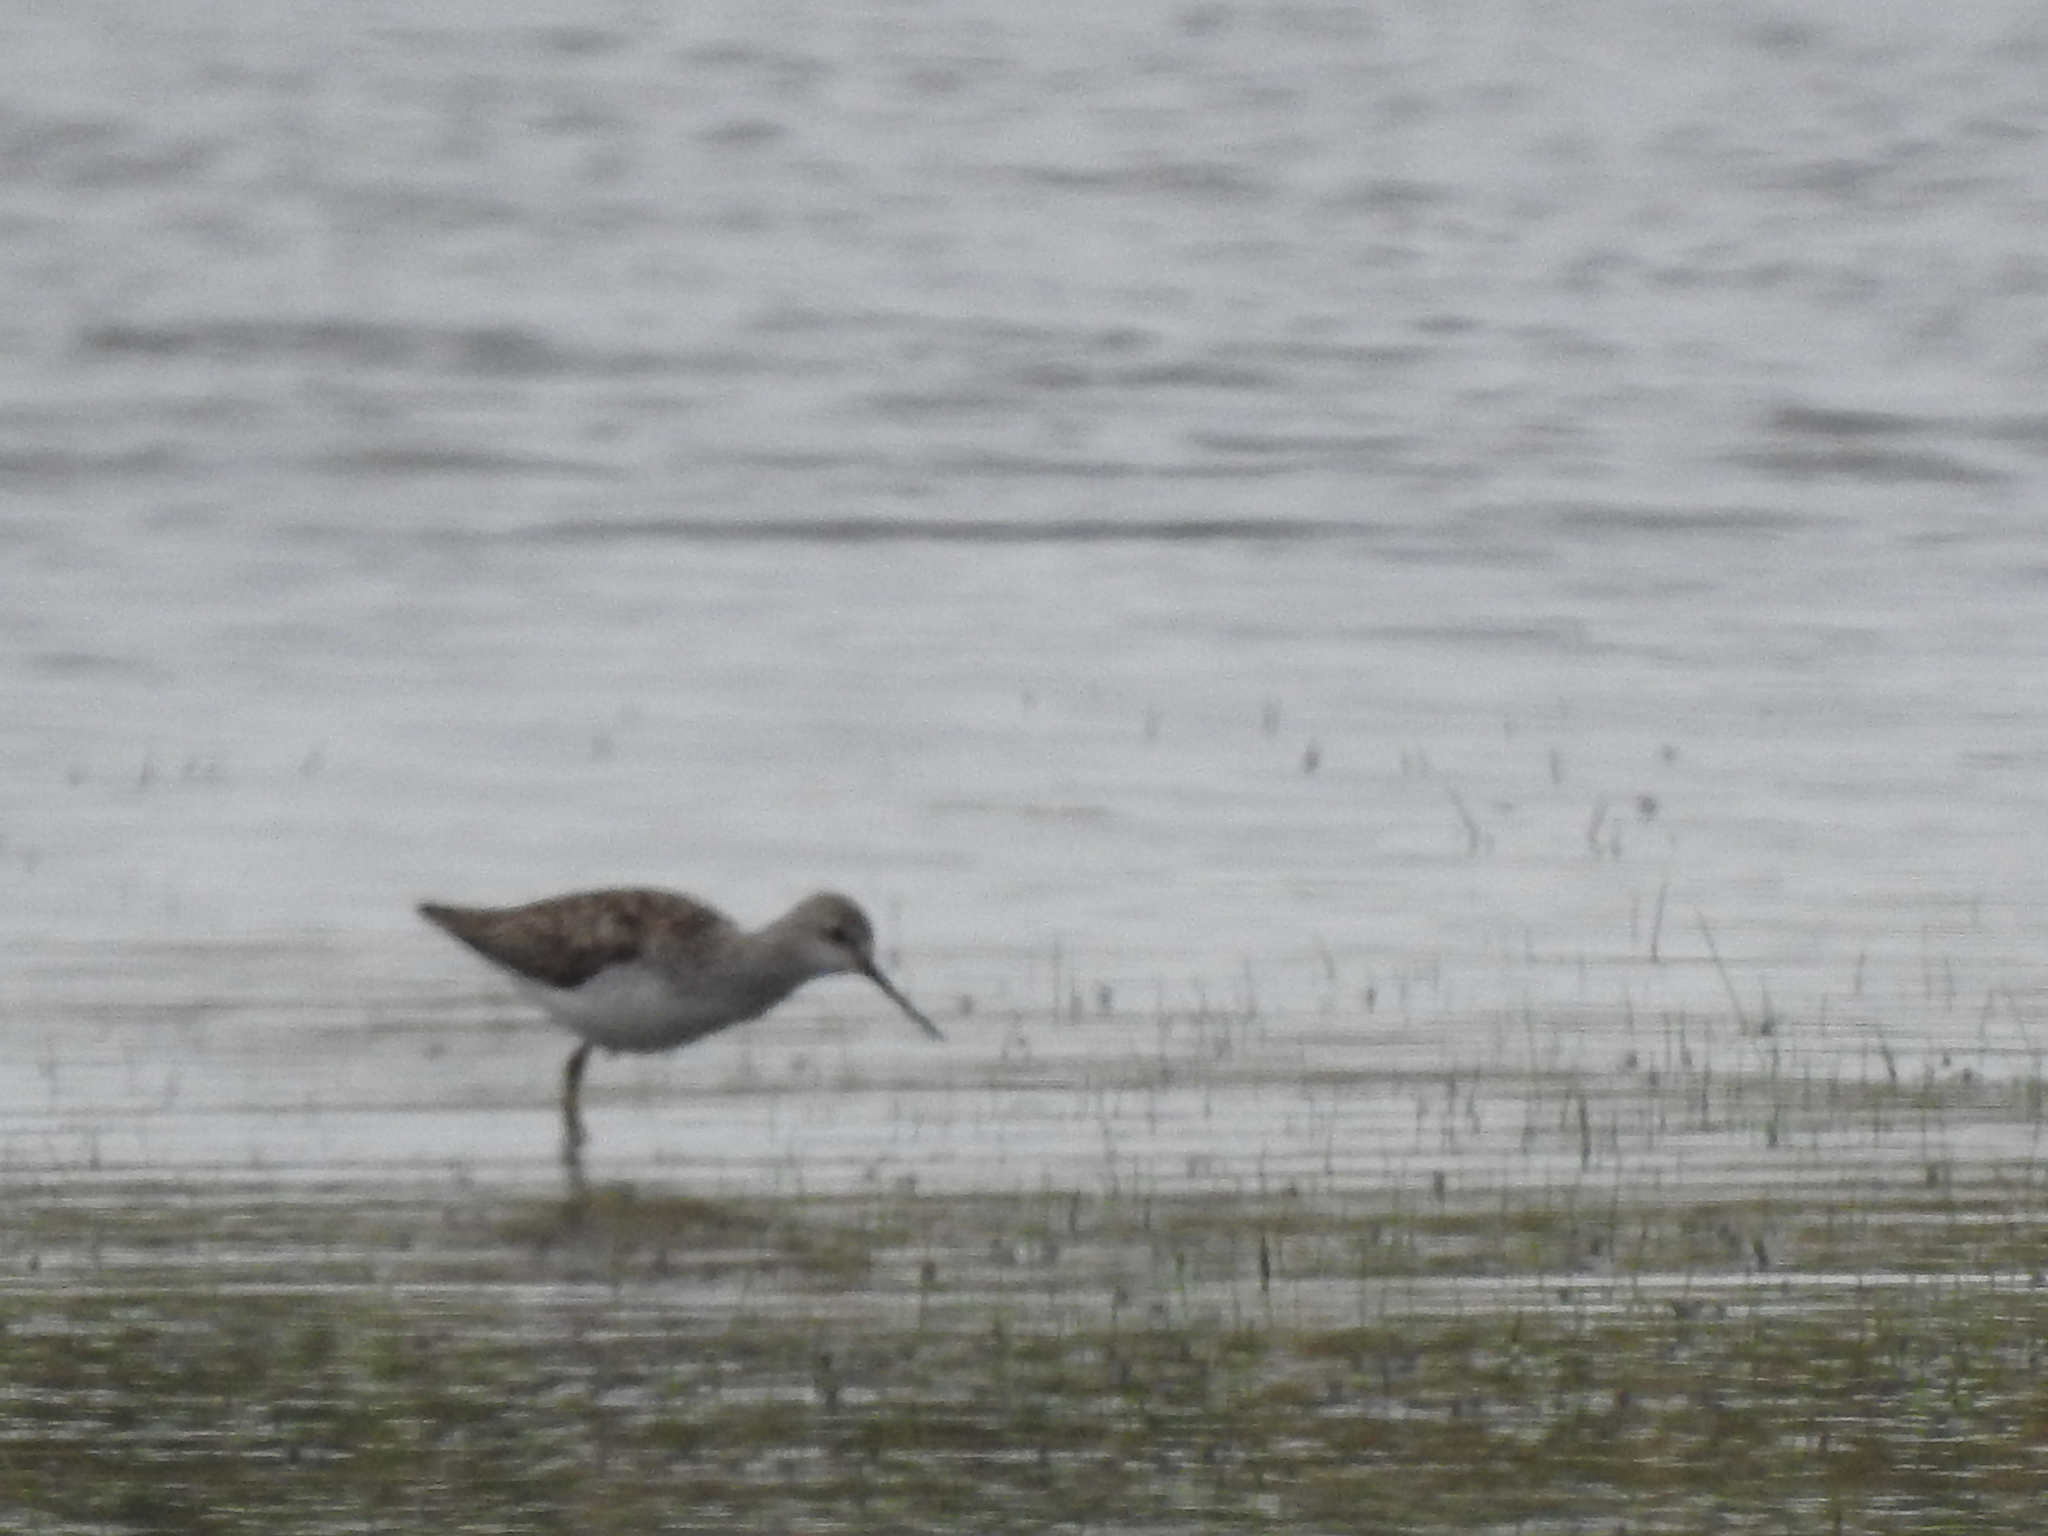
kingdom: Animalia
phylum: Chordata
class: Aves
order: Charadriiformes
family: Scolopacidae
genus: Tringa
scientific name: Tringa stagnatilis
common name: Marsh sandpiper
